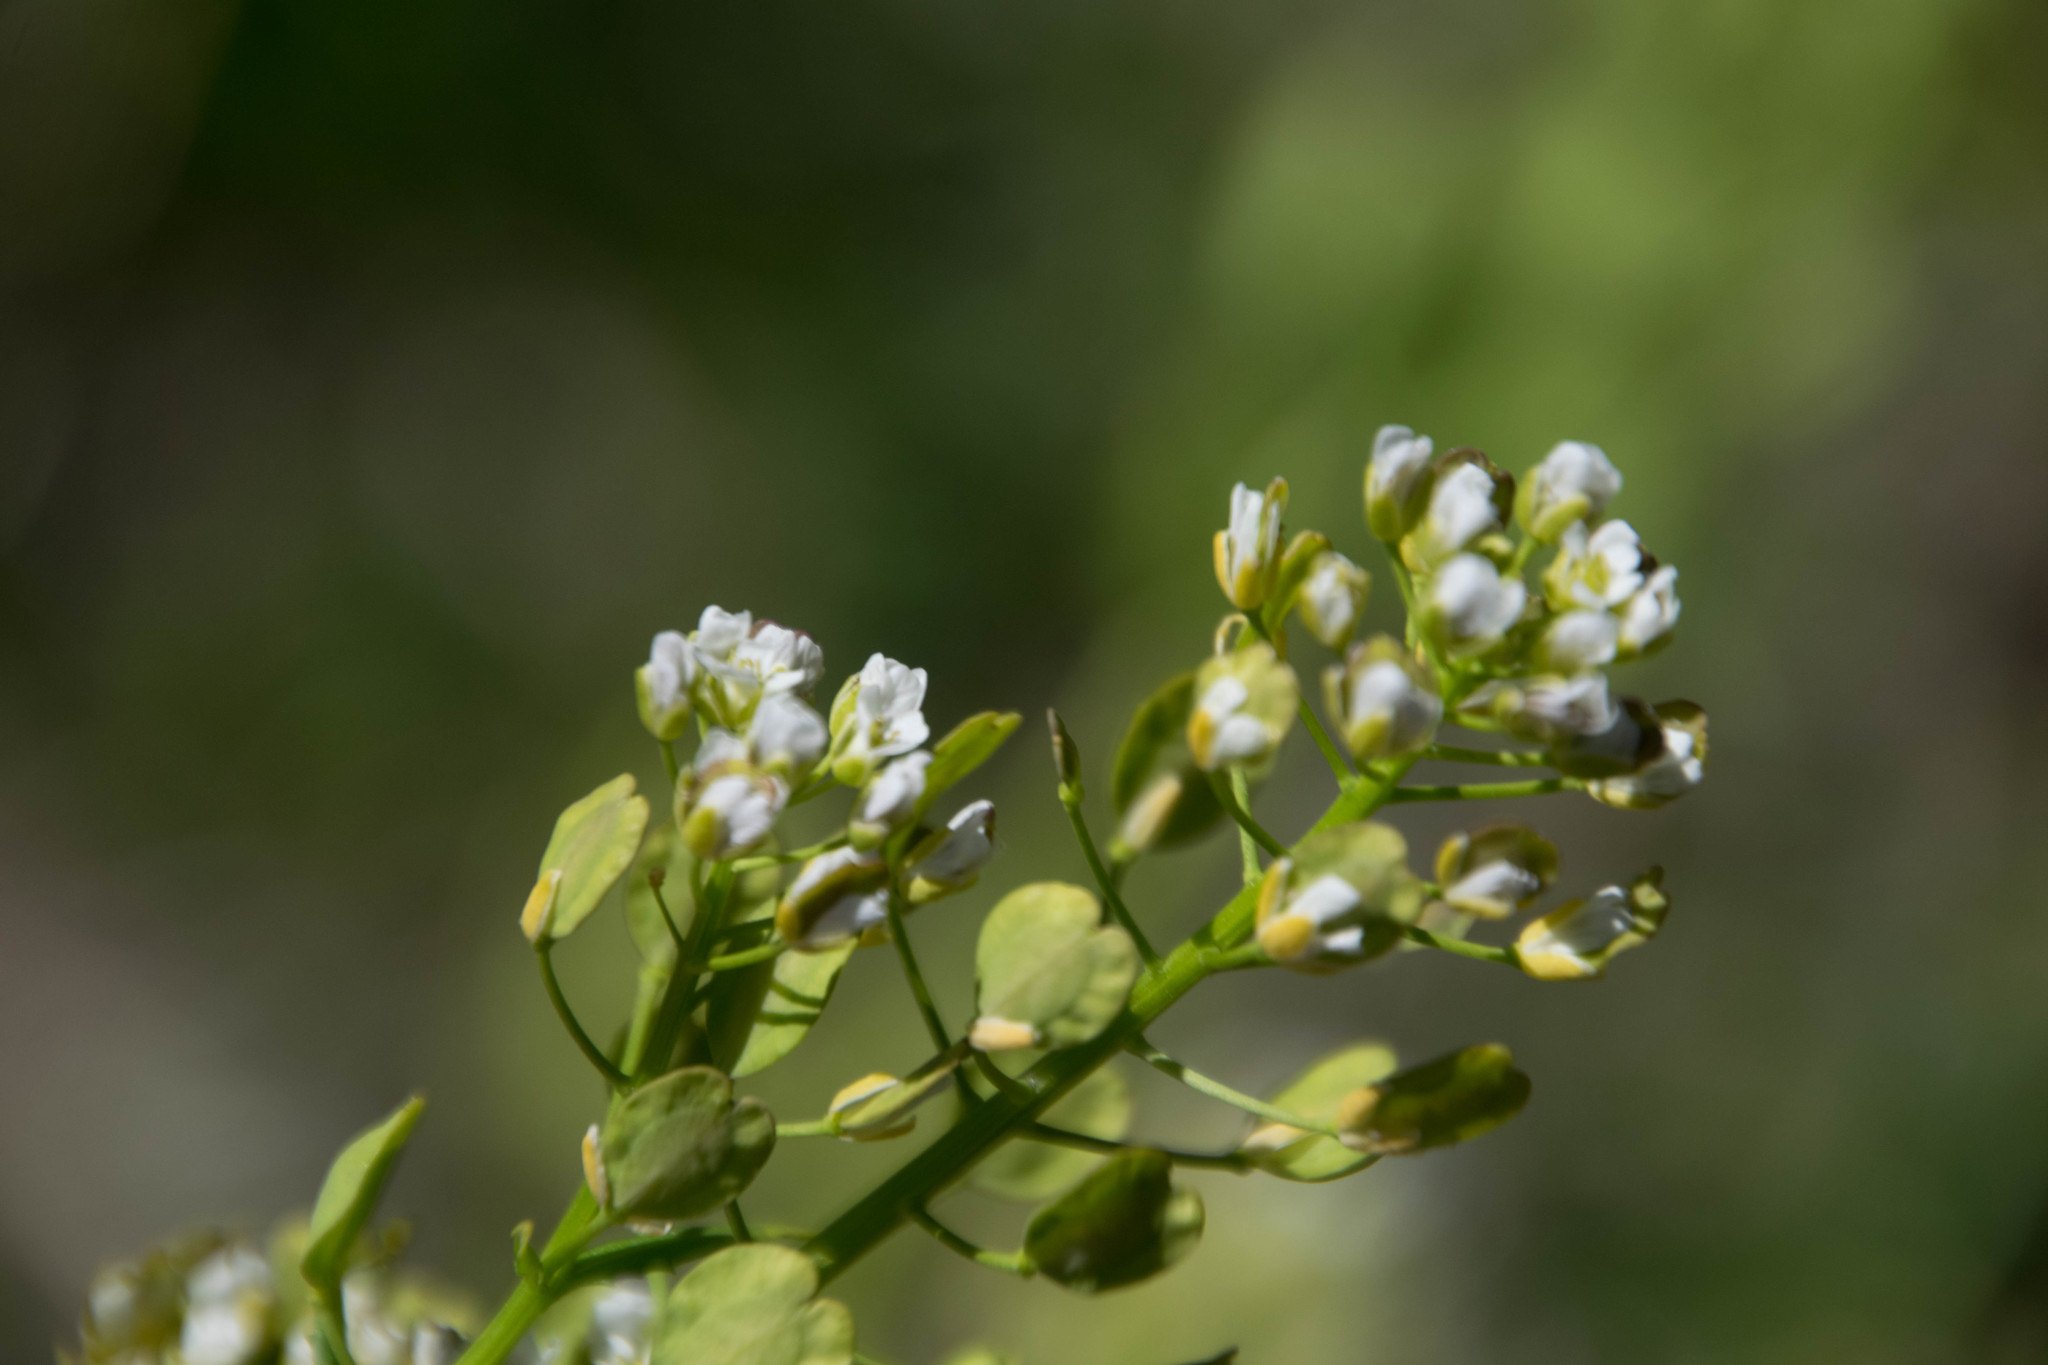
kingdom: Plantae
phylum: Tracheophyta
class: Magnoliopsida
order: Brassicales
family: Brassicaceae
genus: Thlaspi
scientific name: Thlaspi arvense
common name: Field pennycress
